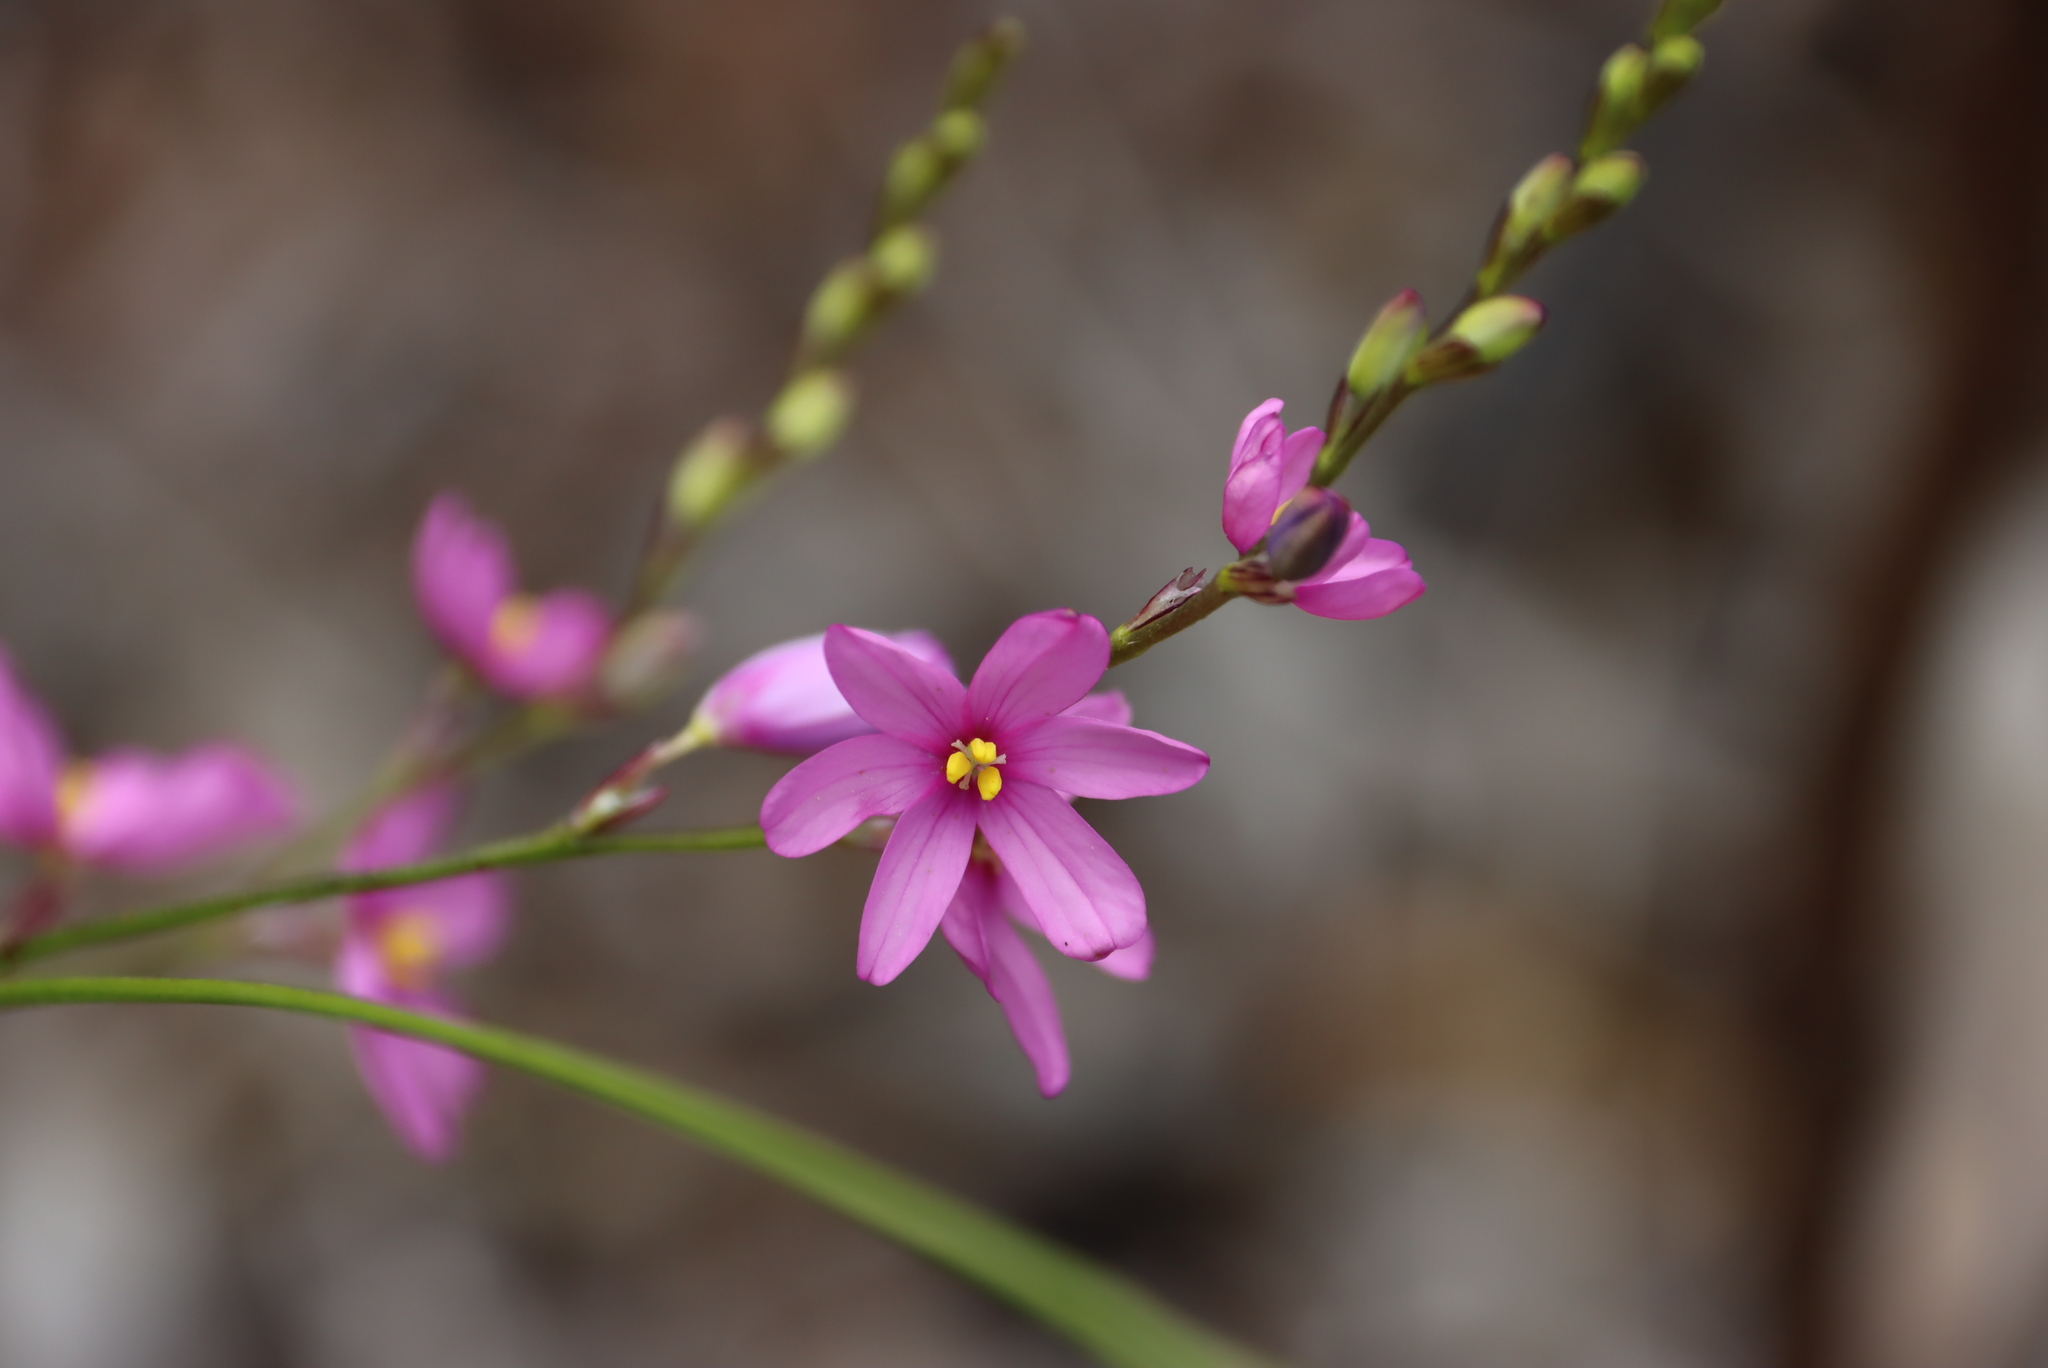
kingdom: Plantae
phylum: Tracheophyta
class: Liliopsida
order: Asparagales
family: Iridaceae
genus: Ixia
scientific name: Ixia stricta
